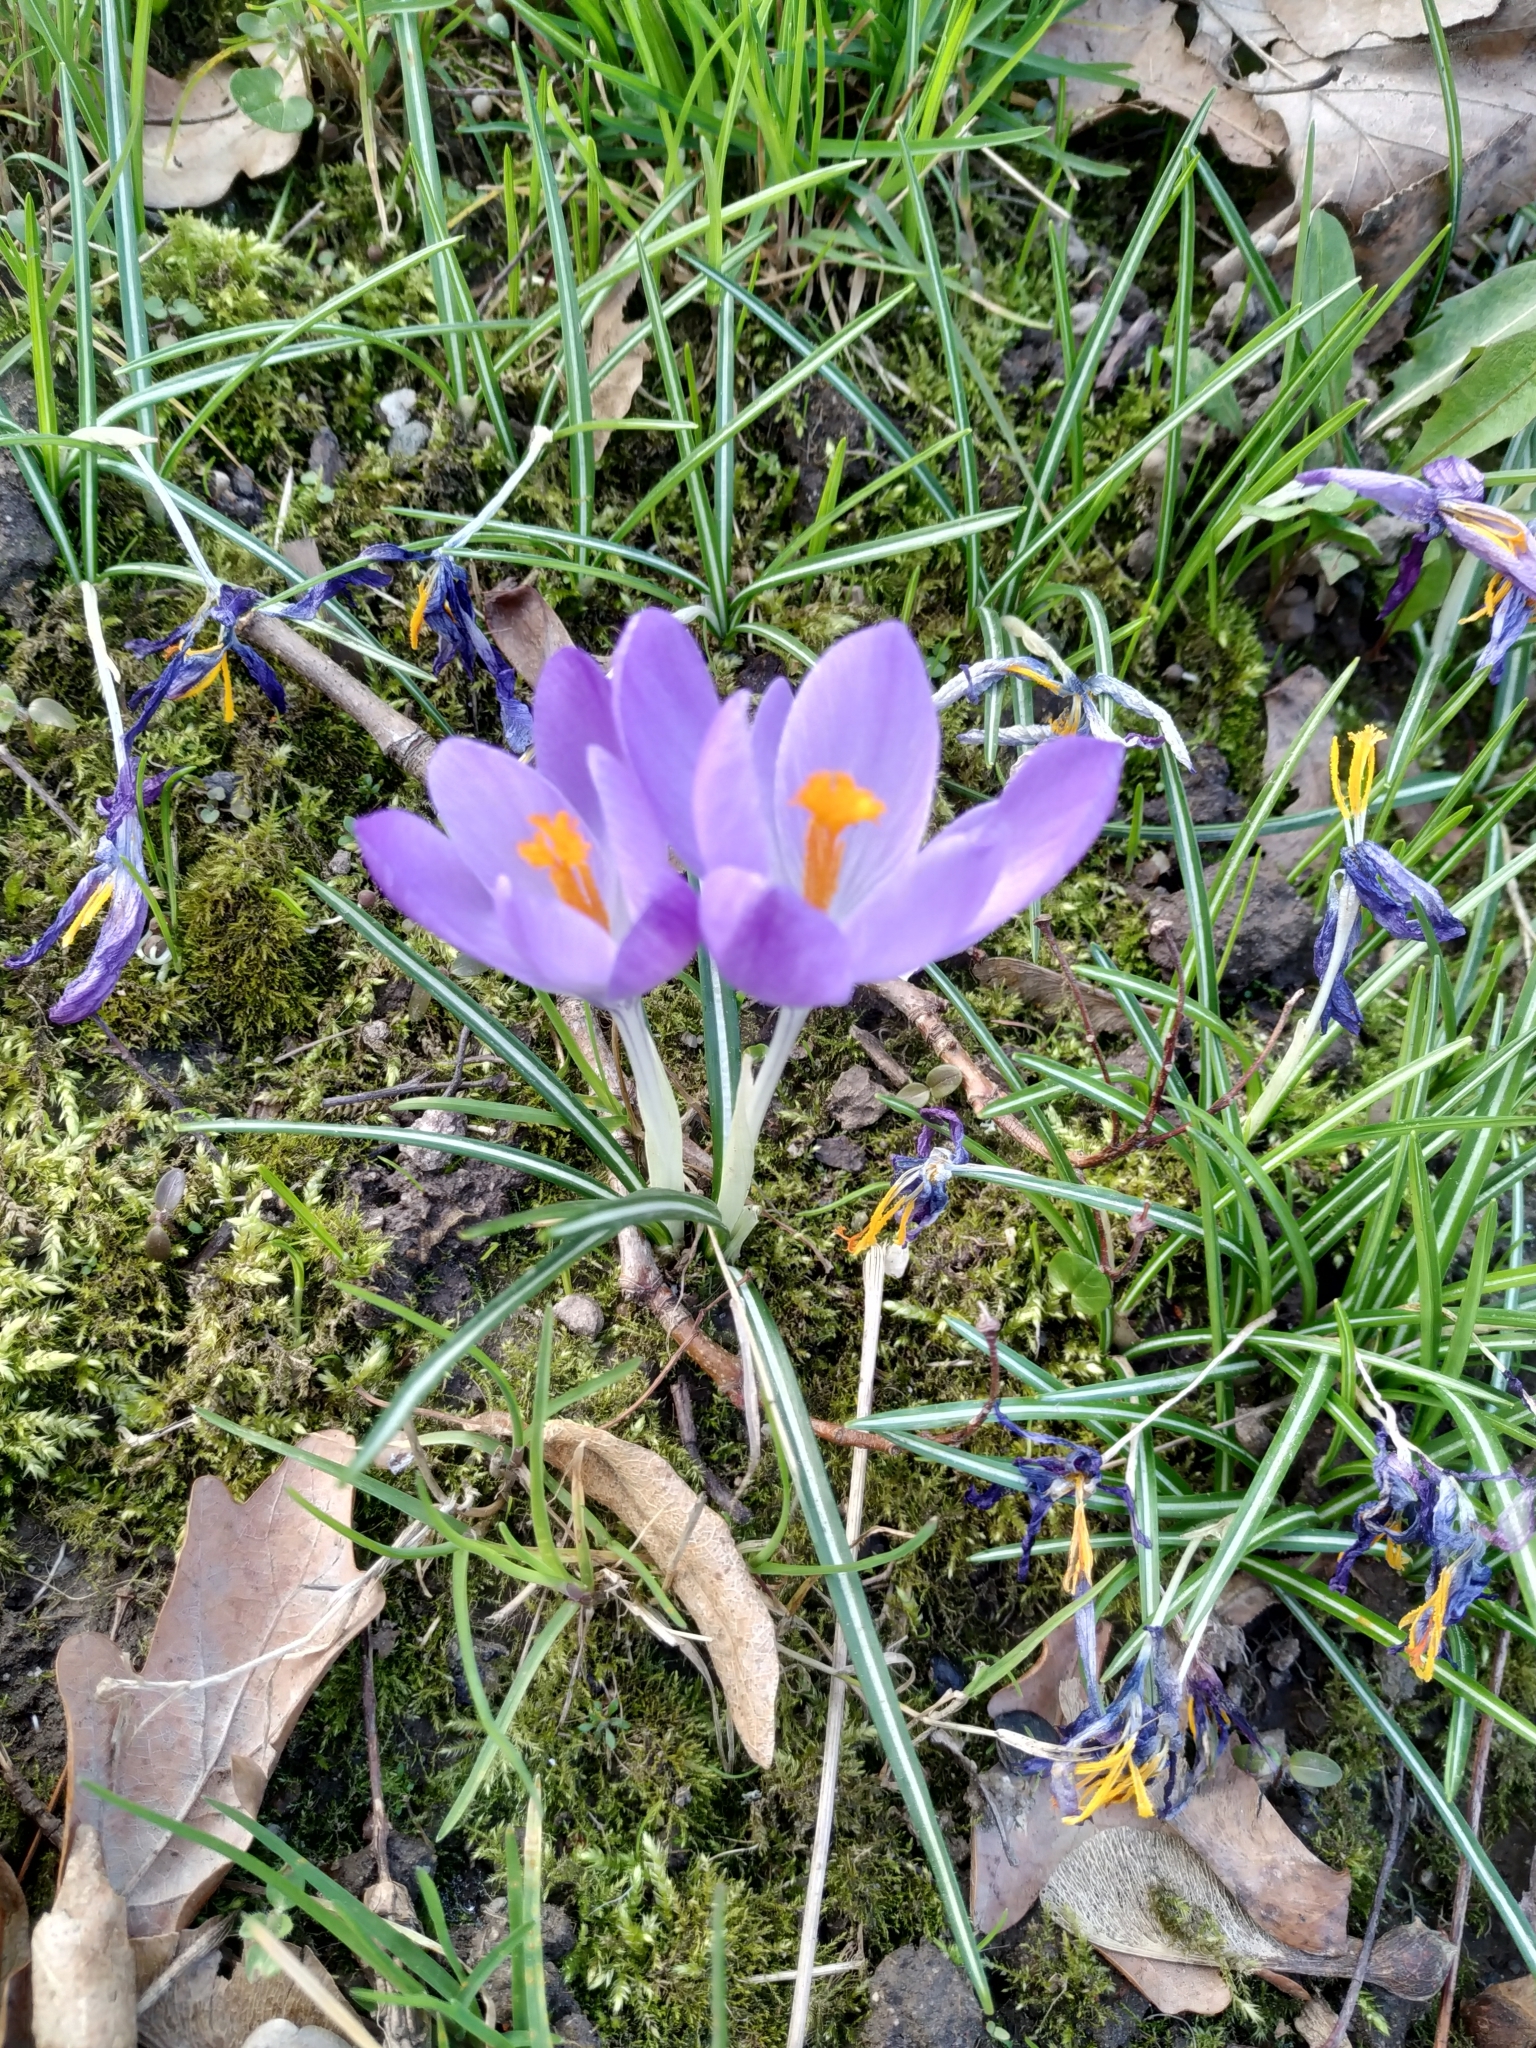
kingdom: Plantae
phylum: Tracheophyta
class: Liliopsida
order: Asparagales
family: Iridaceae
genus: Crocus
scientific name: Crocus tommasinianus
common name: Early crocus
